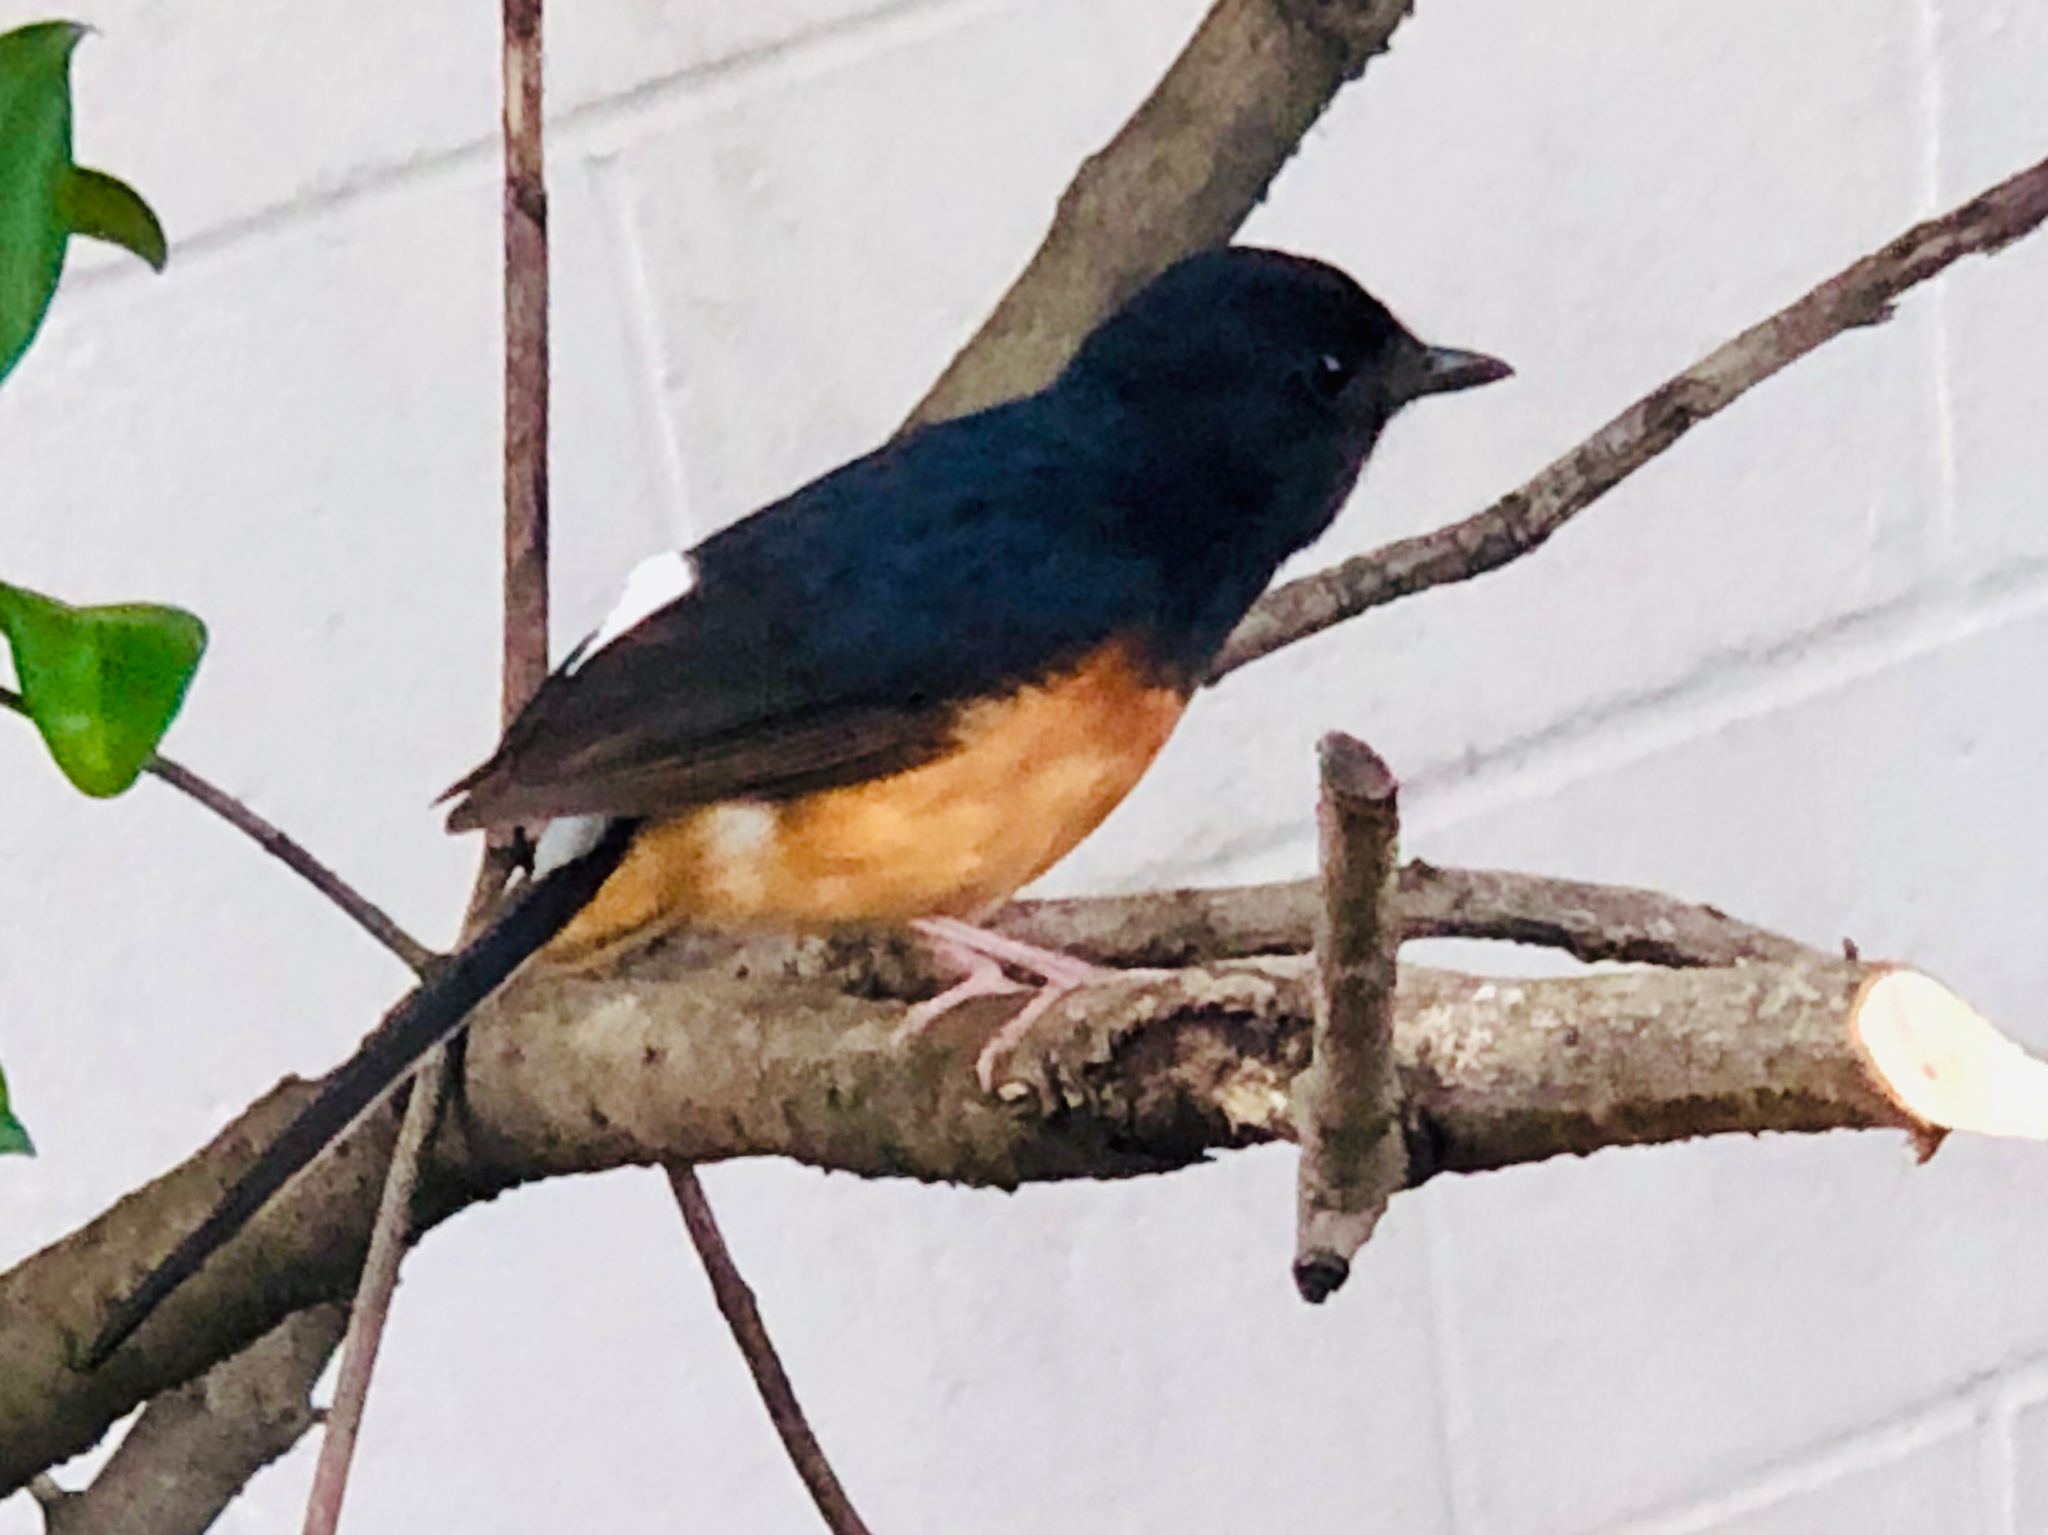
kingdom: Animalia
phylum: Chordata
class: Aves
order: Passeriformes
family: Muscicapidae
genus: Copsychus
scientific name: Copsychus malabaricus
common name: White-rumped shama
